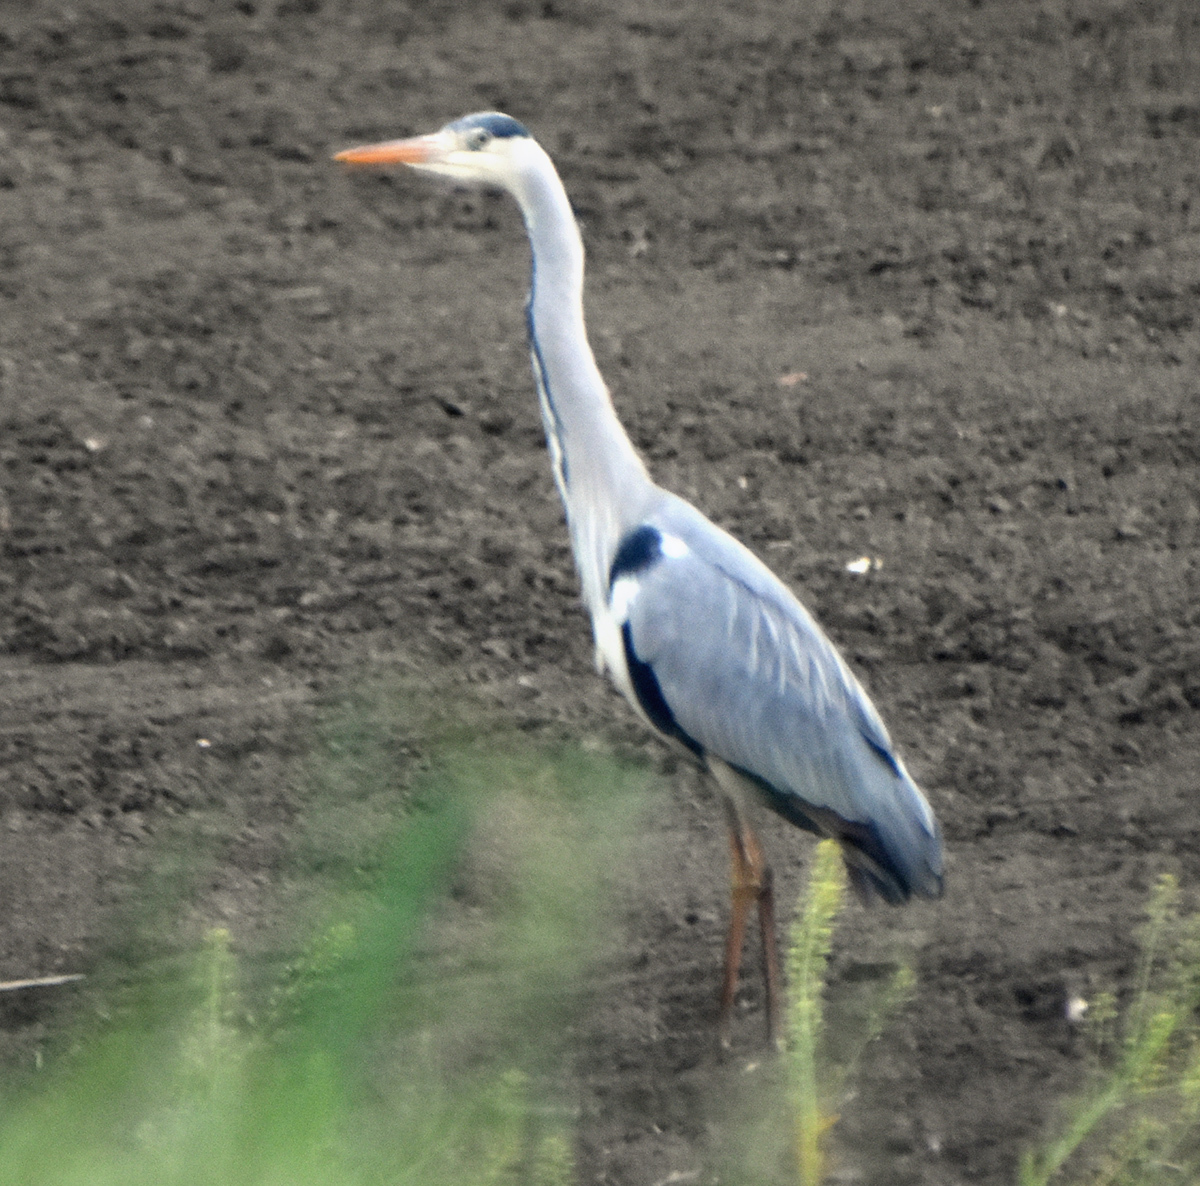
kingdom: Animalia
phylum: Chordata
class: Aves
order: Pelecaniformes
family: Ardeidae
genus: Ardea
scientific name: Ardea cinerea
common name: Grey heron
